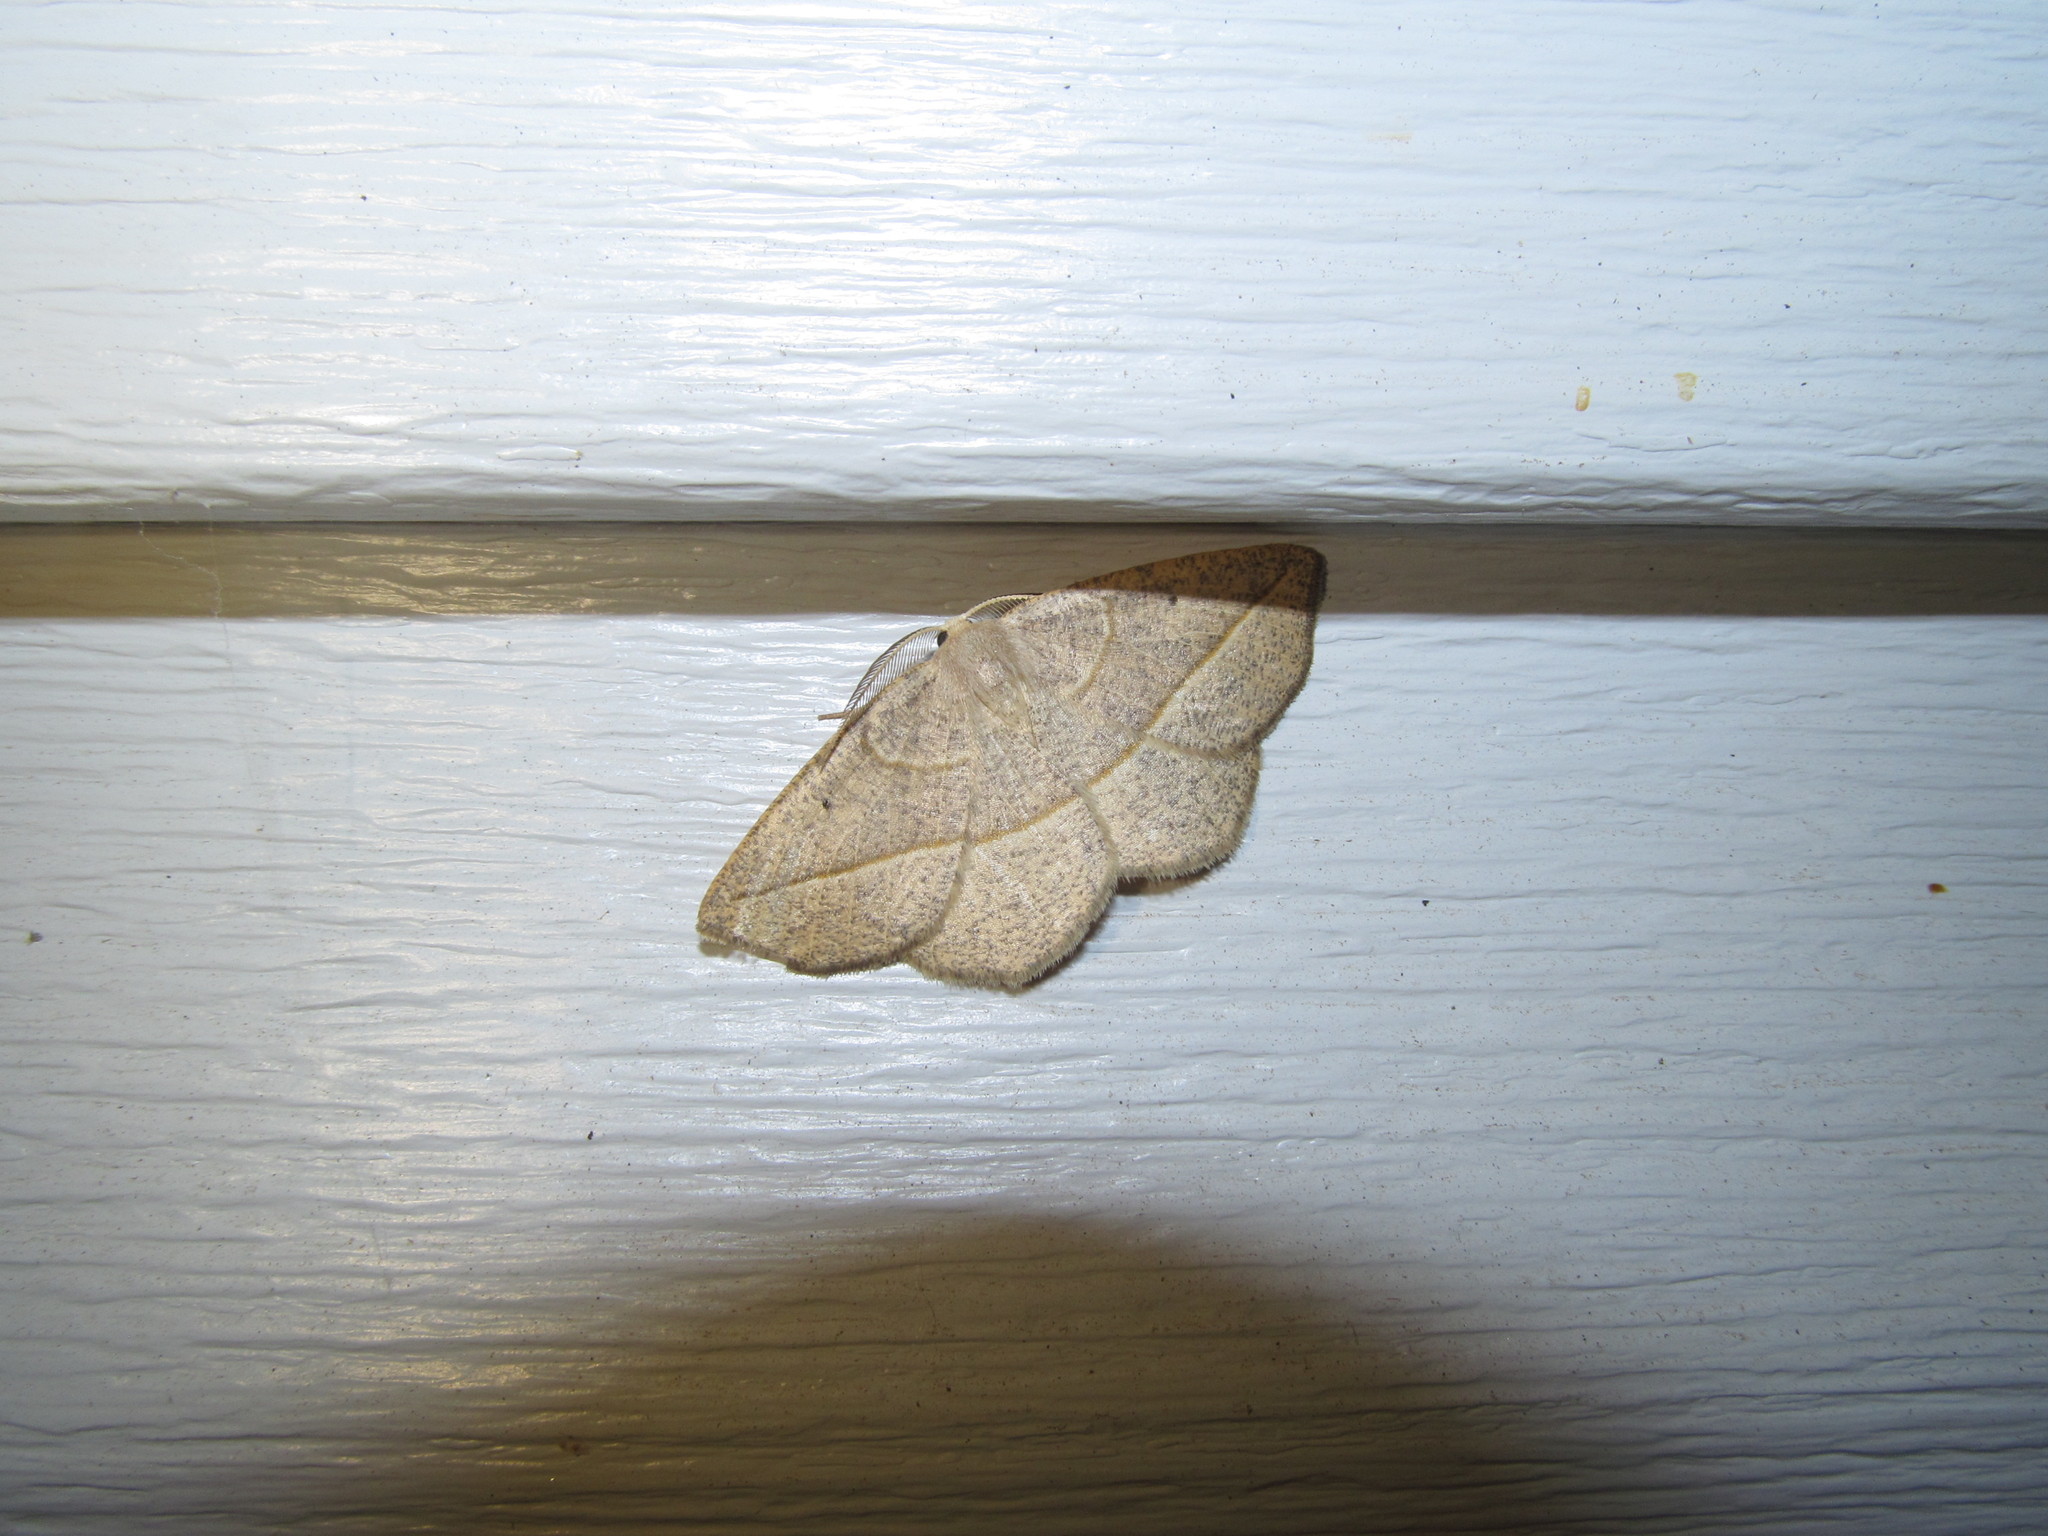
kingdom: Animalia
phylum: Arthropoda
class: Insecta
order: Lepidoptera
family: Geometridae
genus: Eusarca
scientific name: Eusarca confusaria
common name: Confused eusarca
